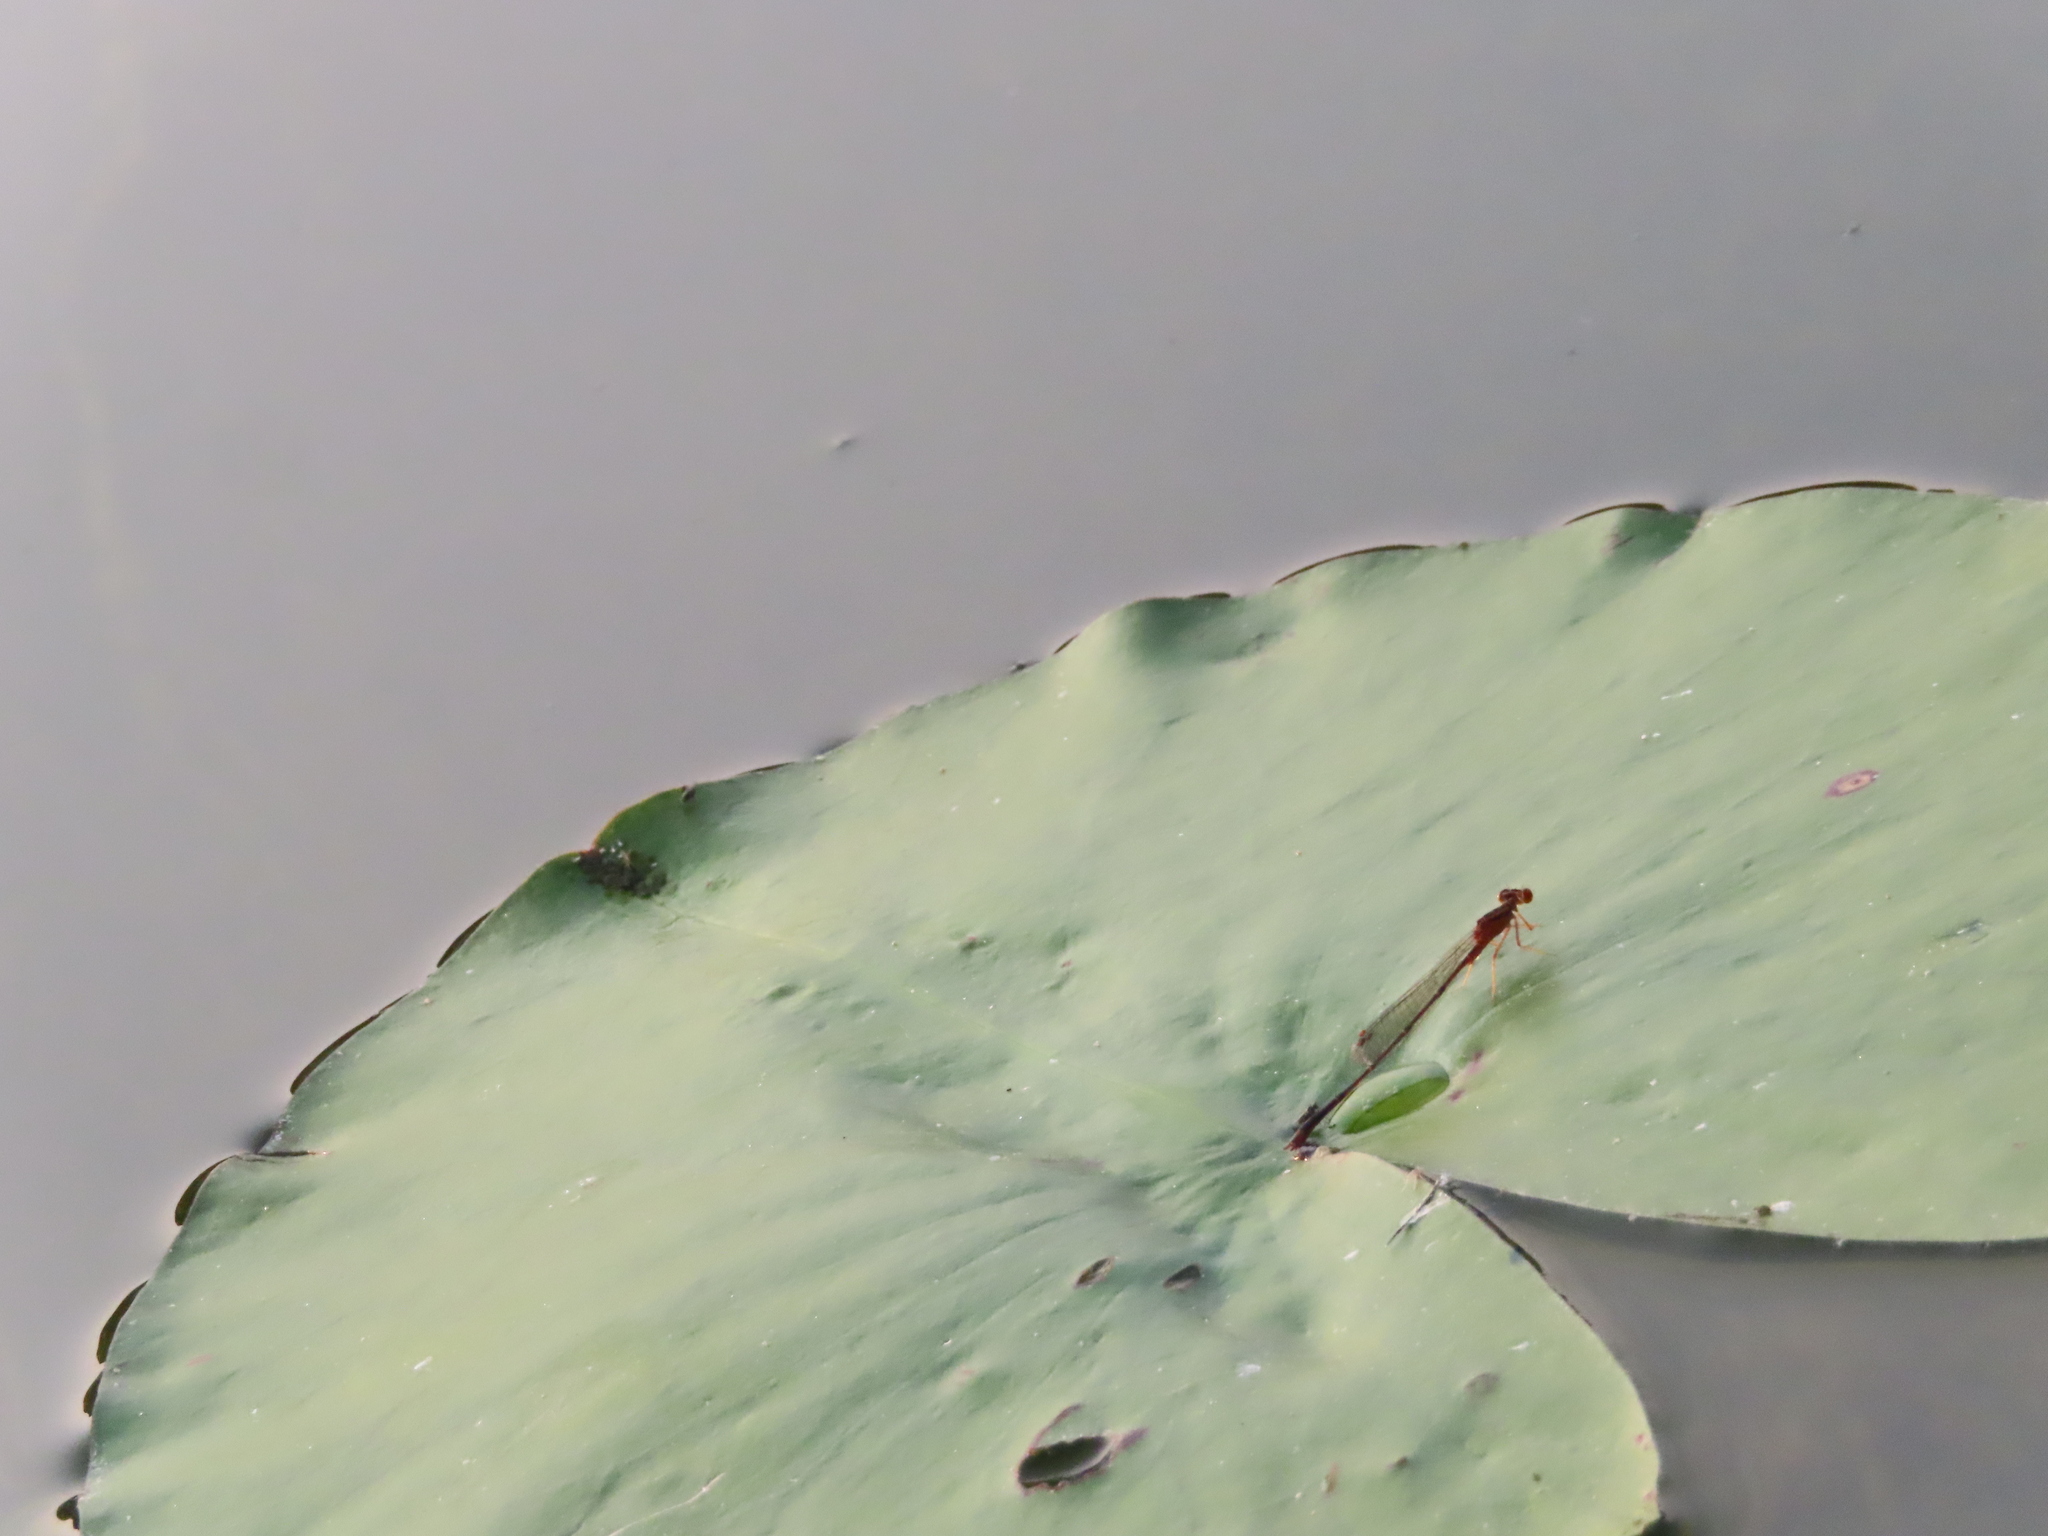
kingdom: Animalia
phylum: Arthropoda
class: Insecta
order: Odonata
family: Coenagrionidae
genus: Enallagma
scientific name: Enallagma signatum
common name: Orange bluet
